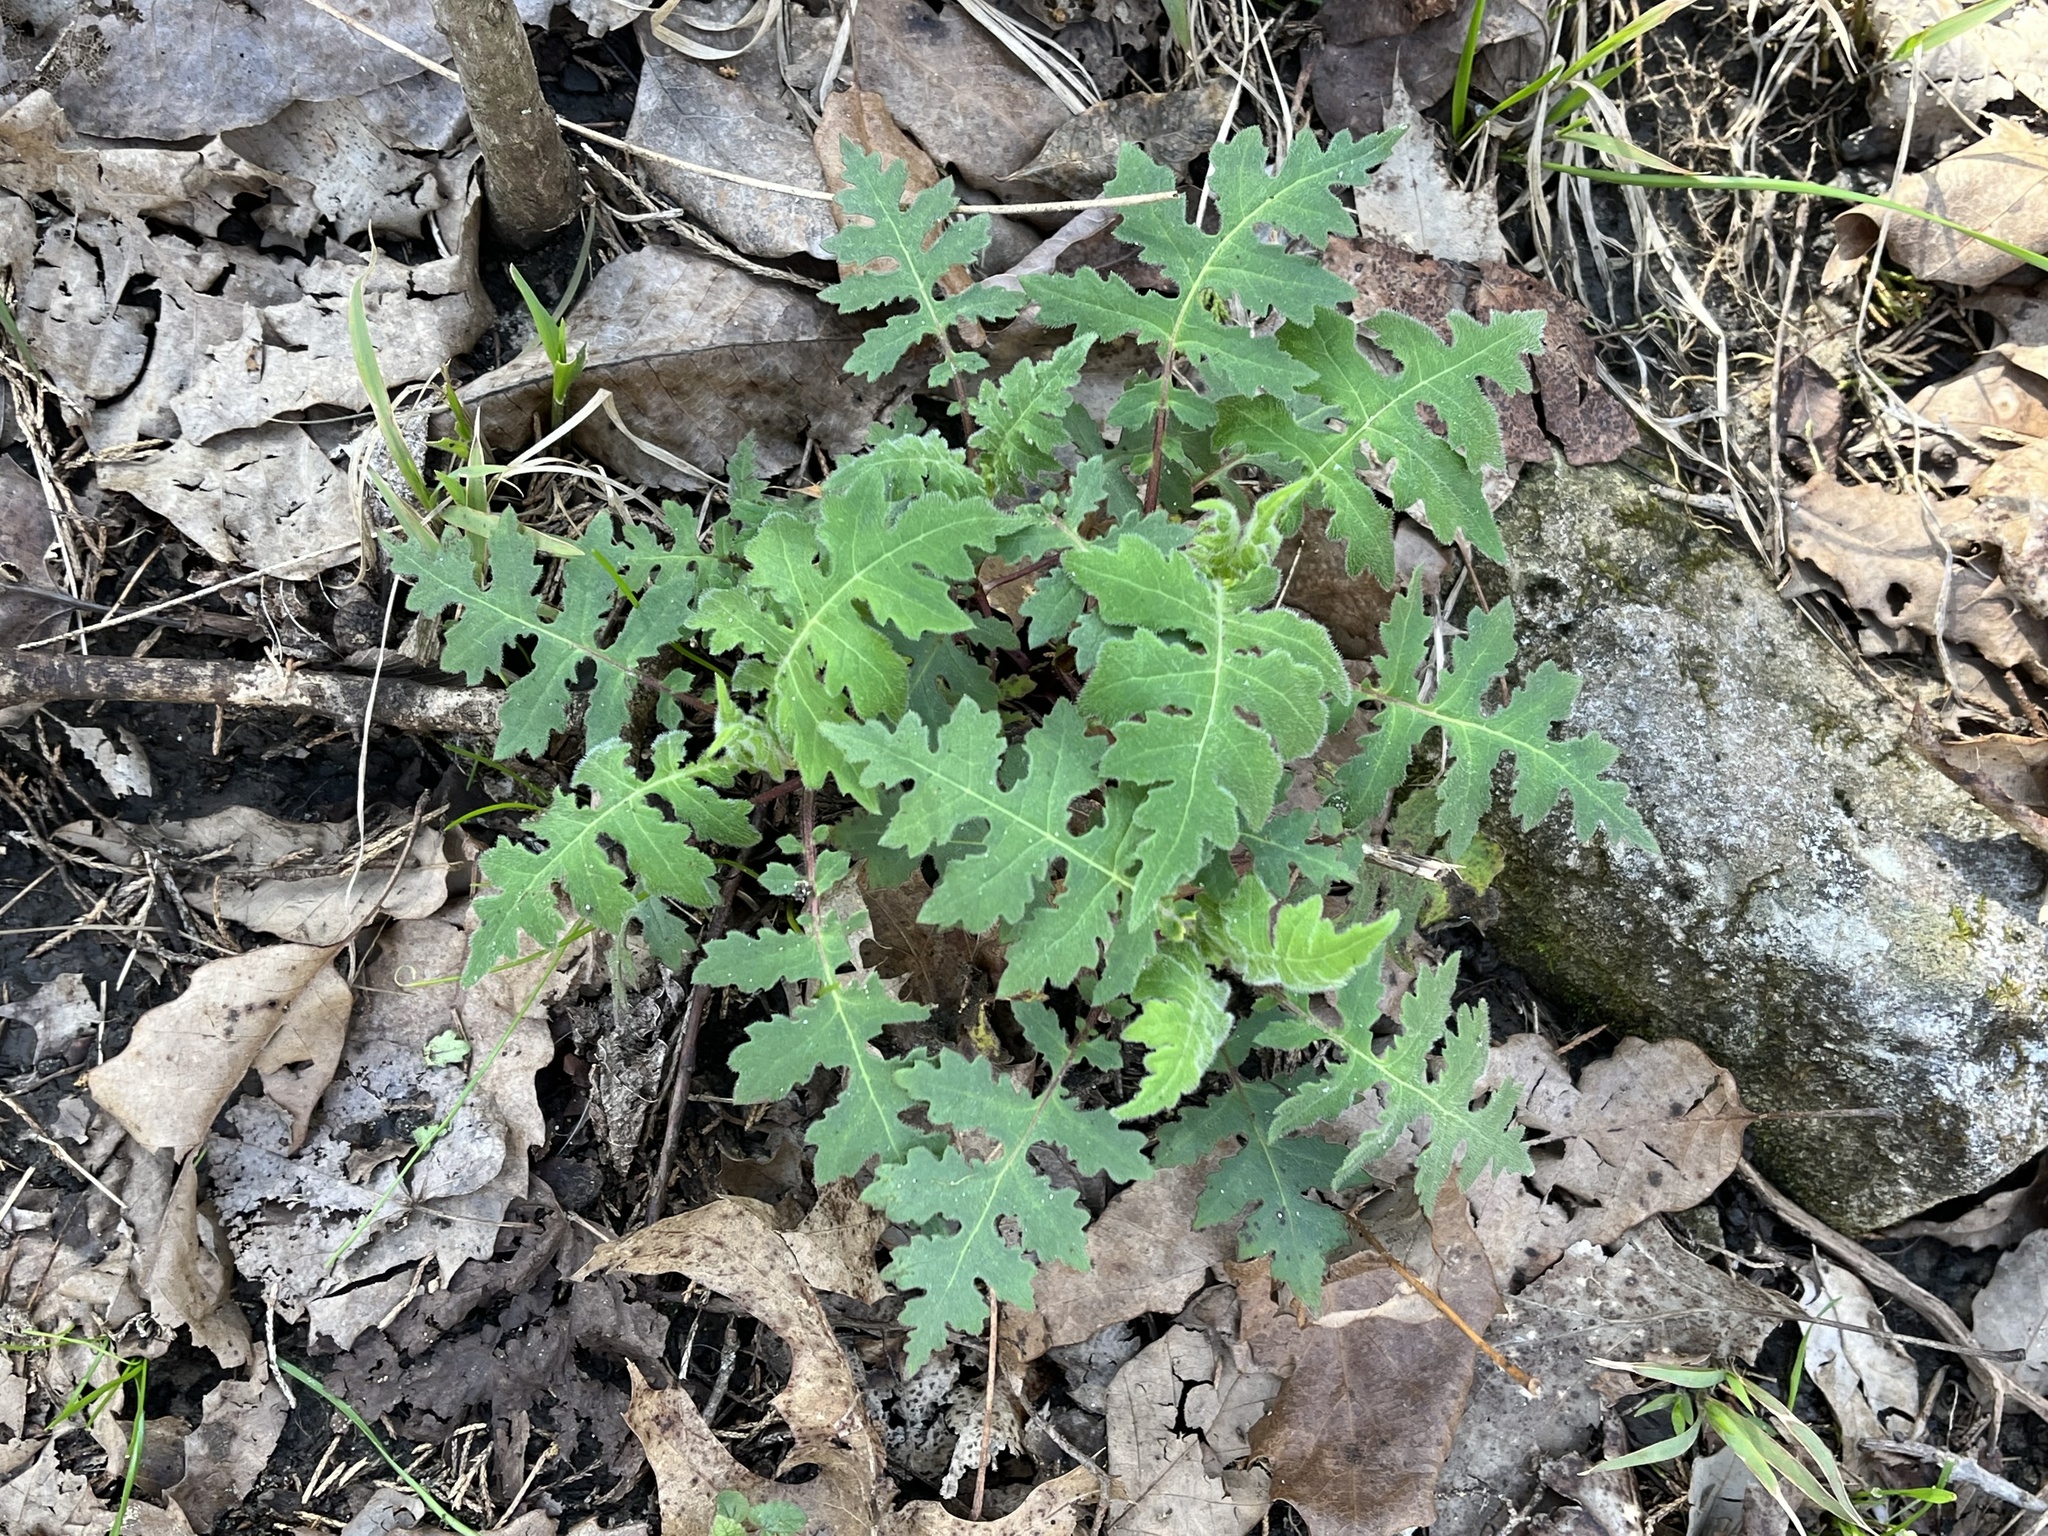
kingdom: Plantae
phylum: Tracheophyta
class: Magnoliopsida
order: Asterales
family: Asteraceae
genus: Polymnia
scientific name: Polymnia canadensis
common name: Pale-flowered leafcup
